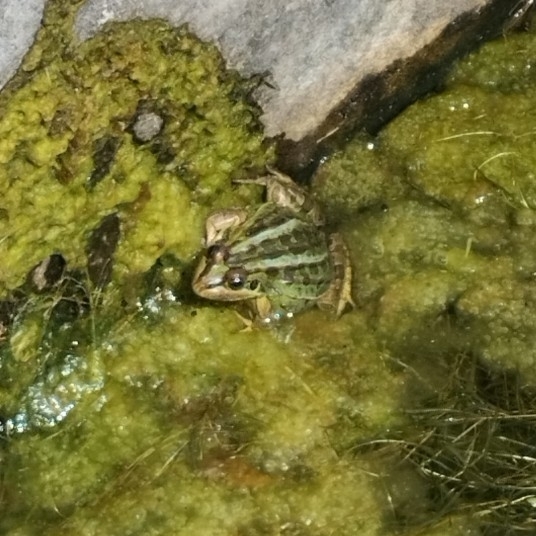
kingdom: Animalia
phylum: Chordata
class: Amphibia
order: Anura
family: Leptodactylidae
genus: Leptodactylus
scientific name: Leptodactylus luctator
